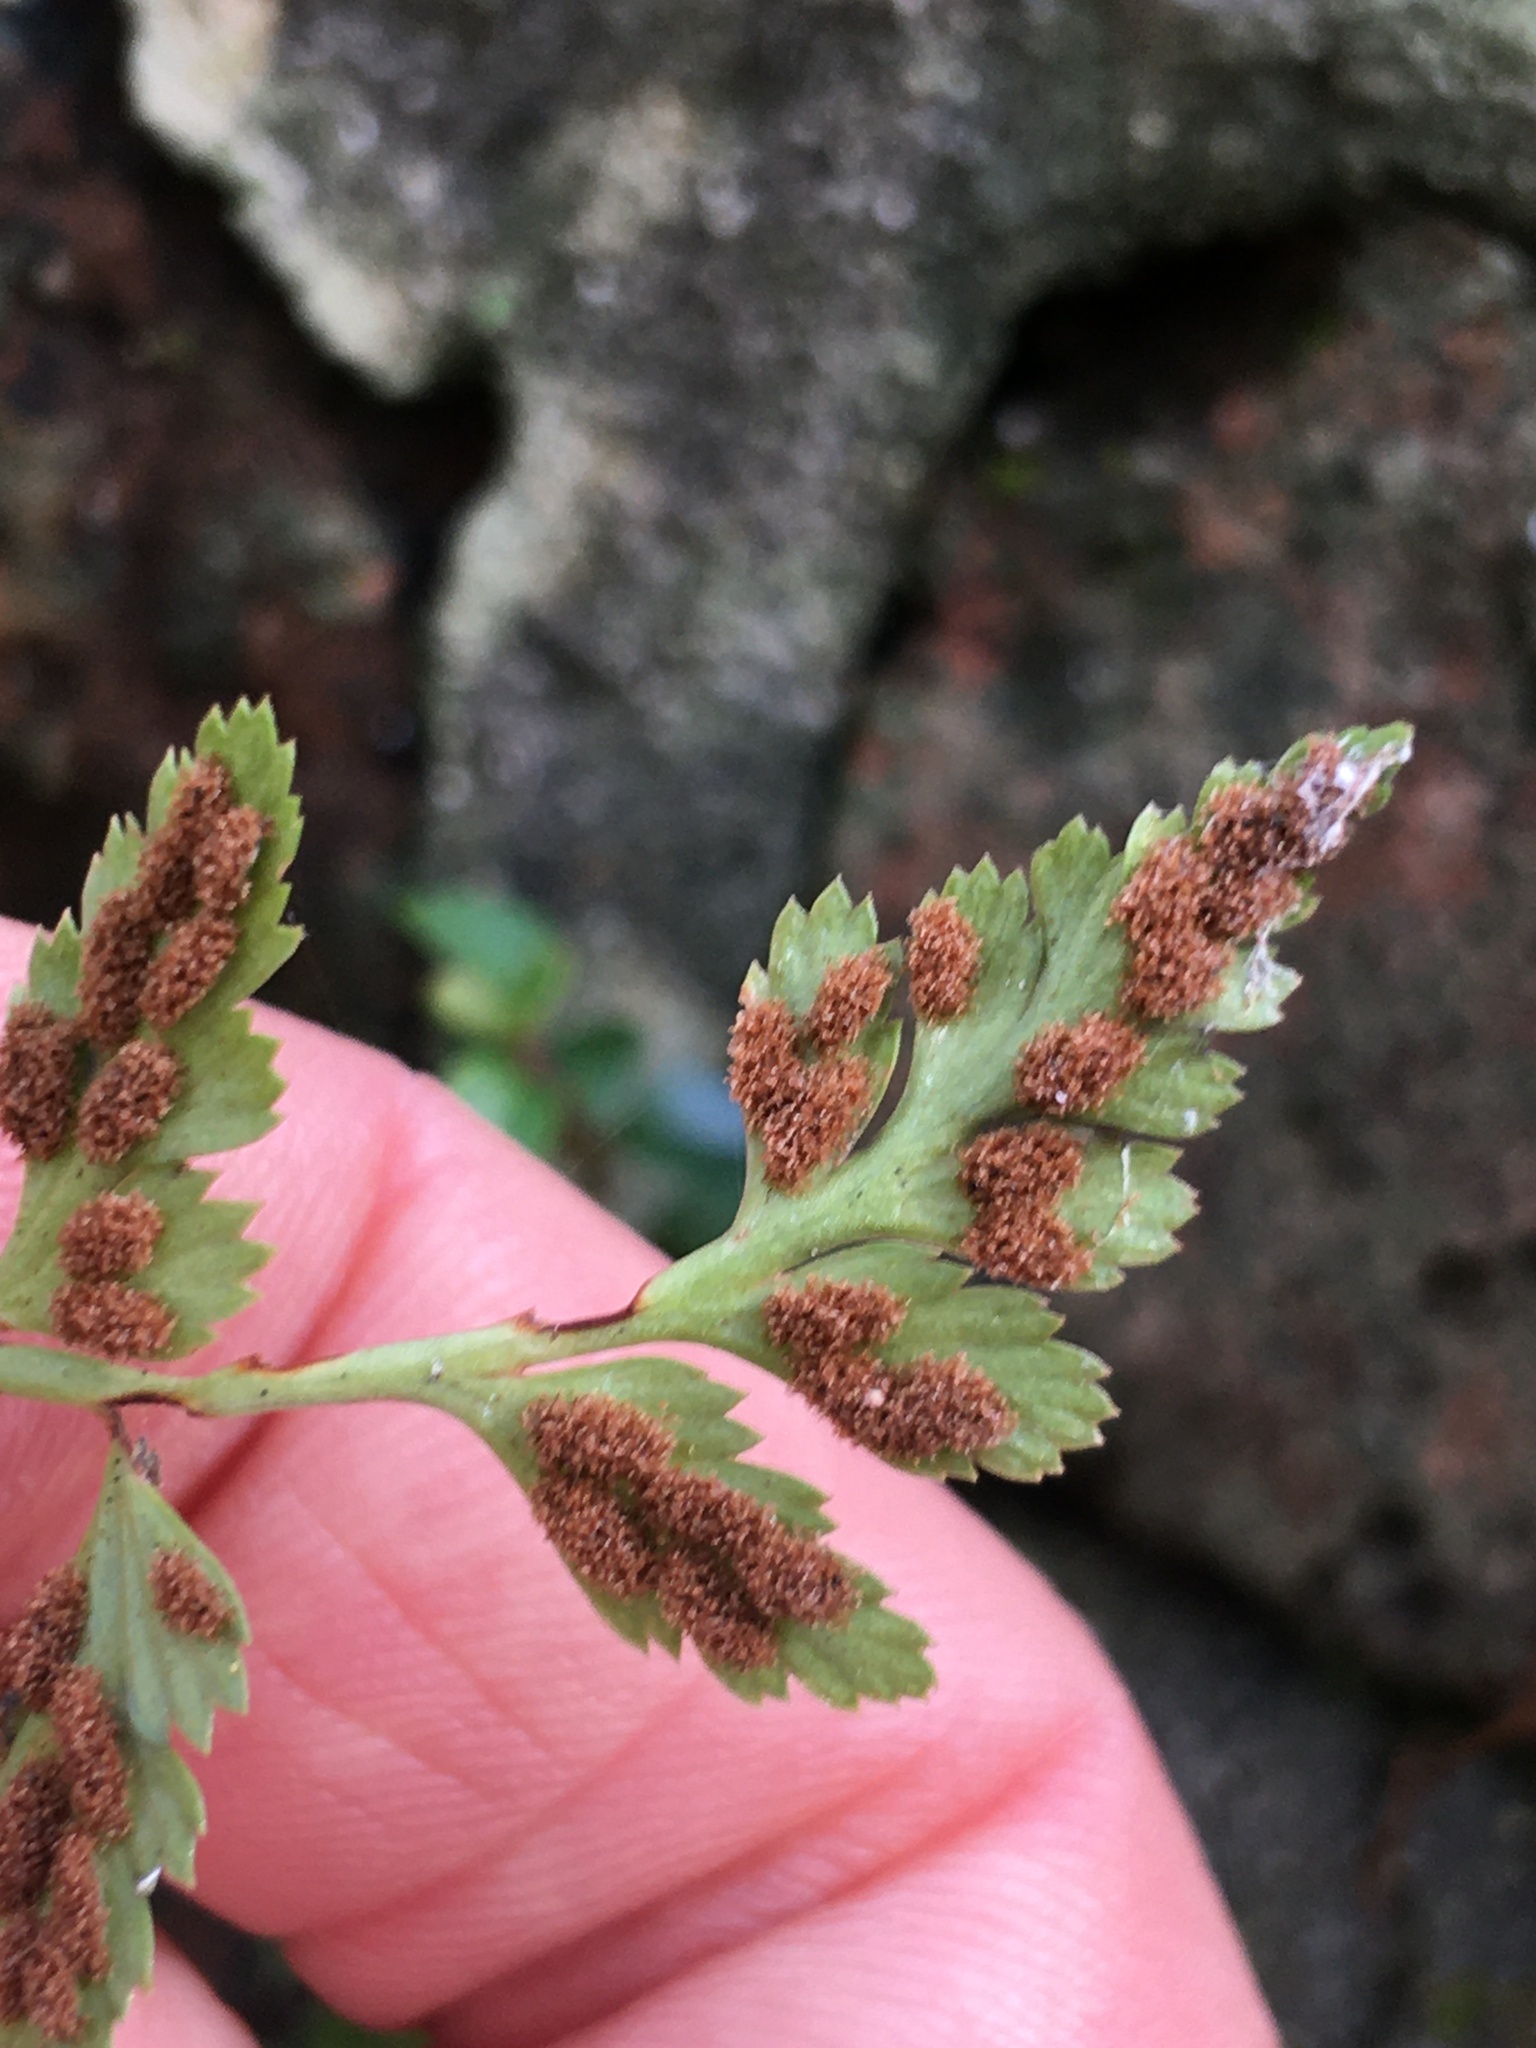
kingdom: Plantae
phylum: Tracheophyta
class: Polypodiopsida
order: Polypodiales
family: Aspleniaceae
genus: Asplenium
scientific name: Asplenium adiantum-nigrum
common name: Black spleenwort
